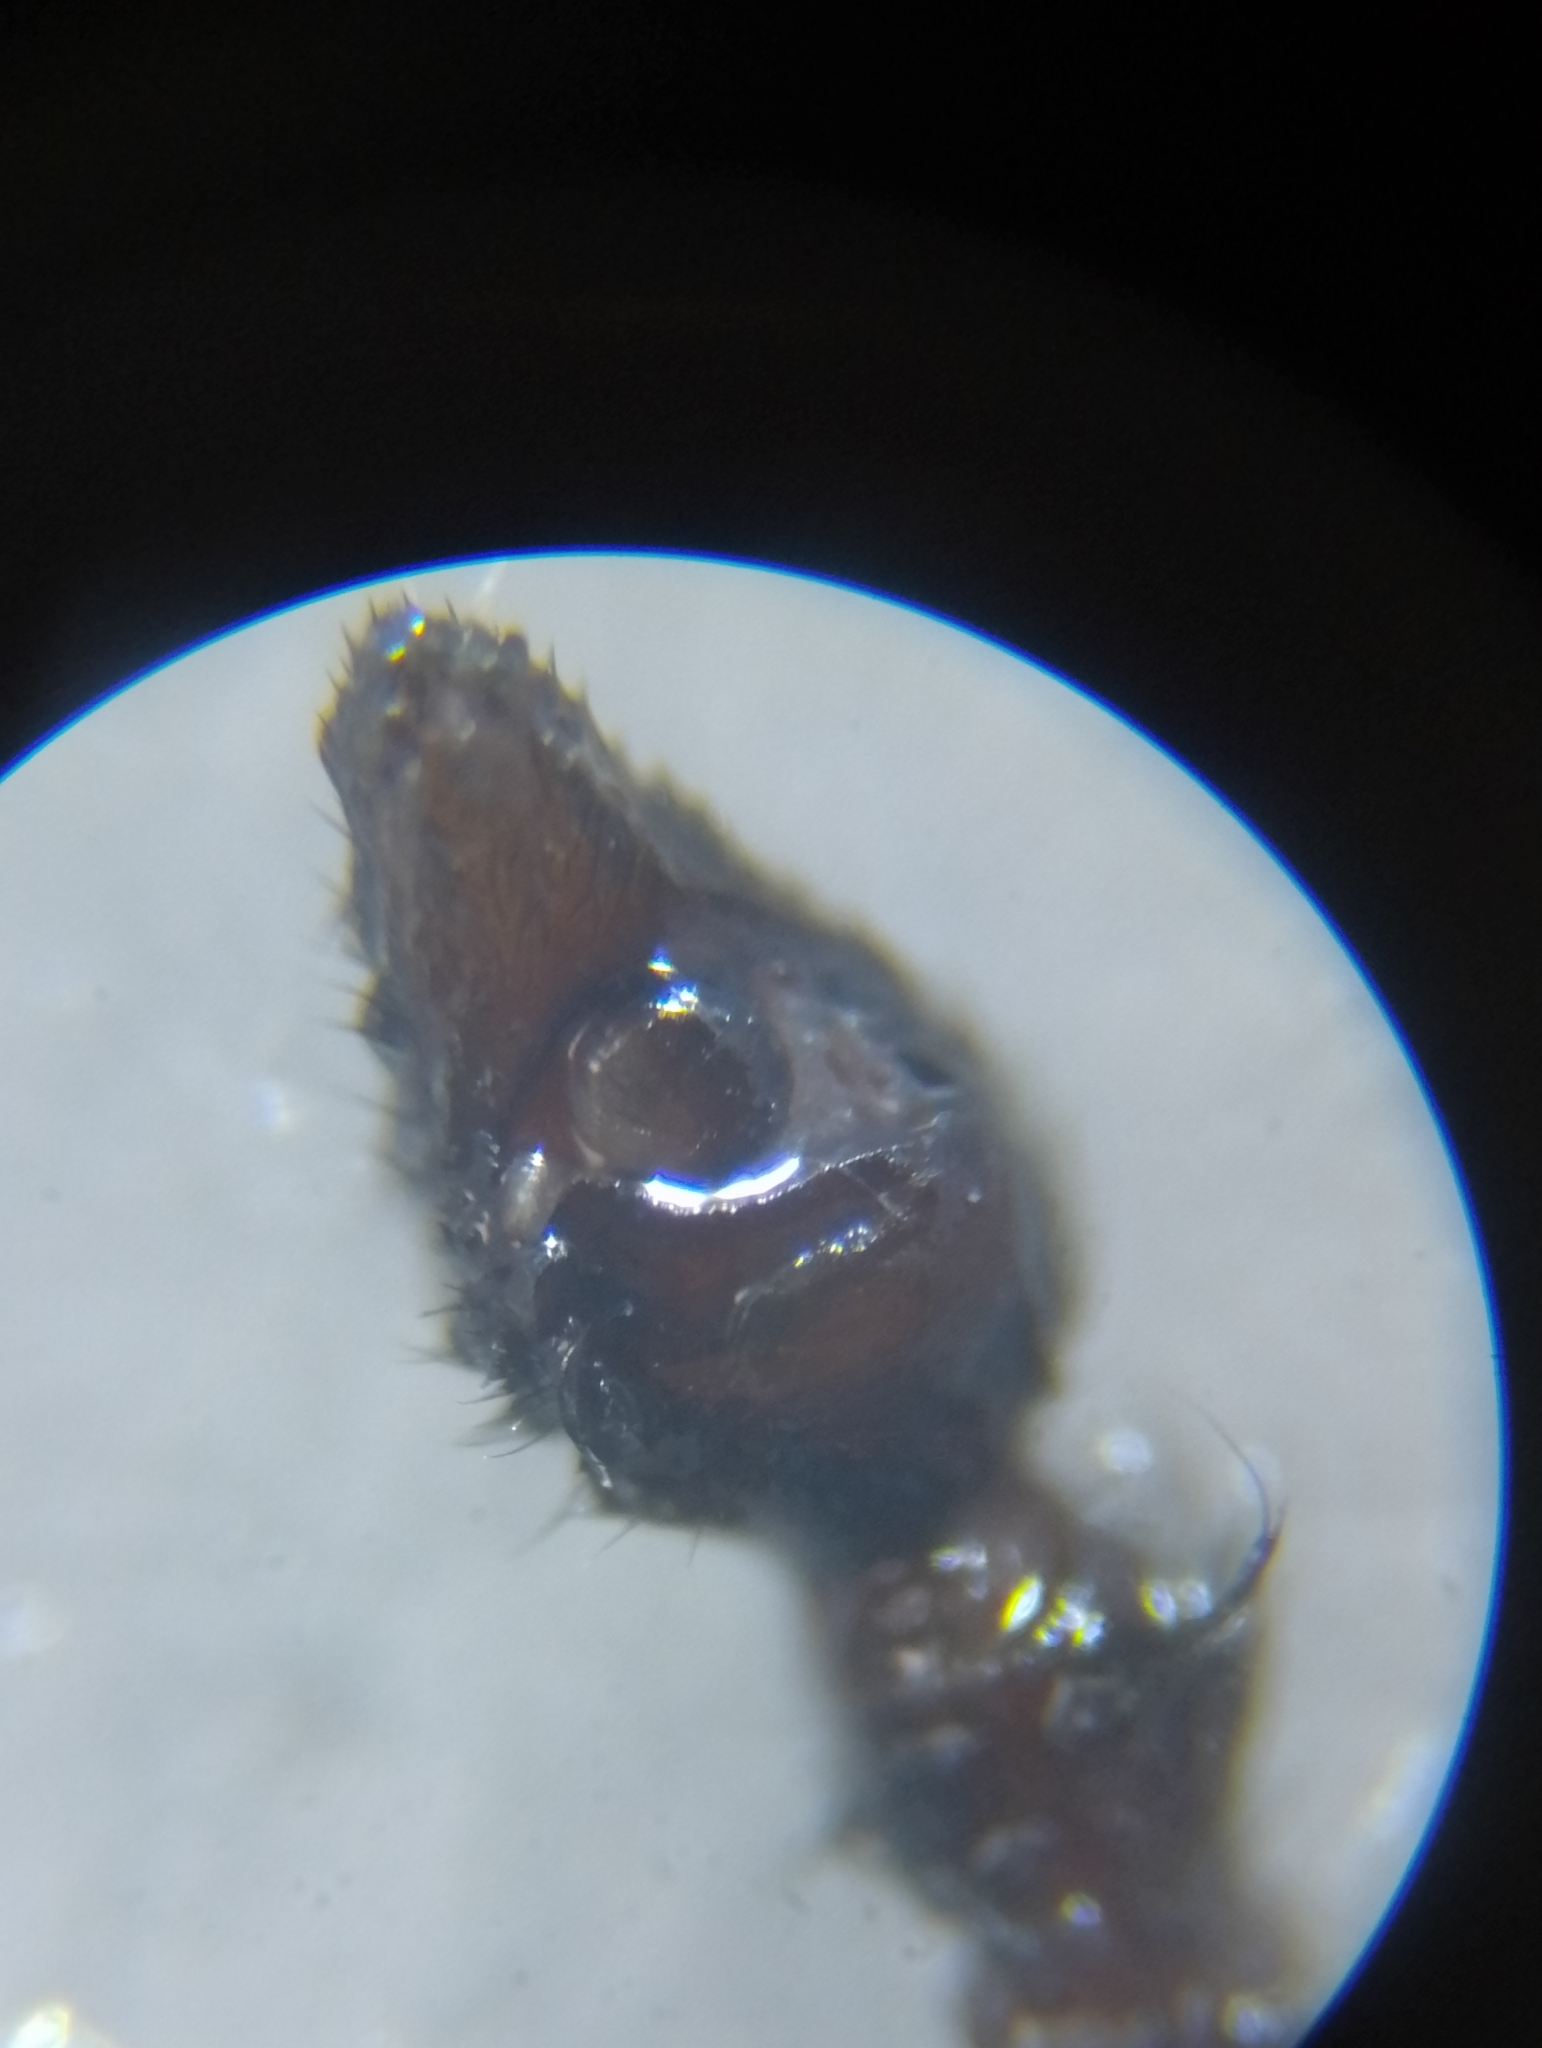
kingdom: Animalia
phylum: Arthropoda
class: Arachnida
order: Araneae
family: Lycosidae
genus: Alopecosa
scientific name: Alopecosa farinosa
